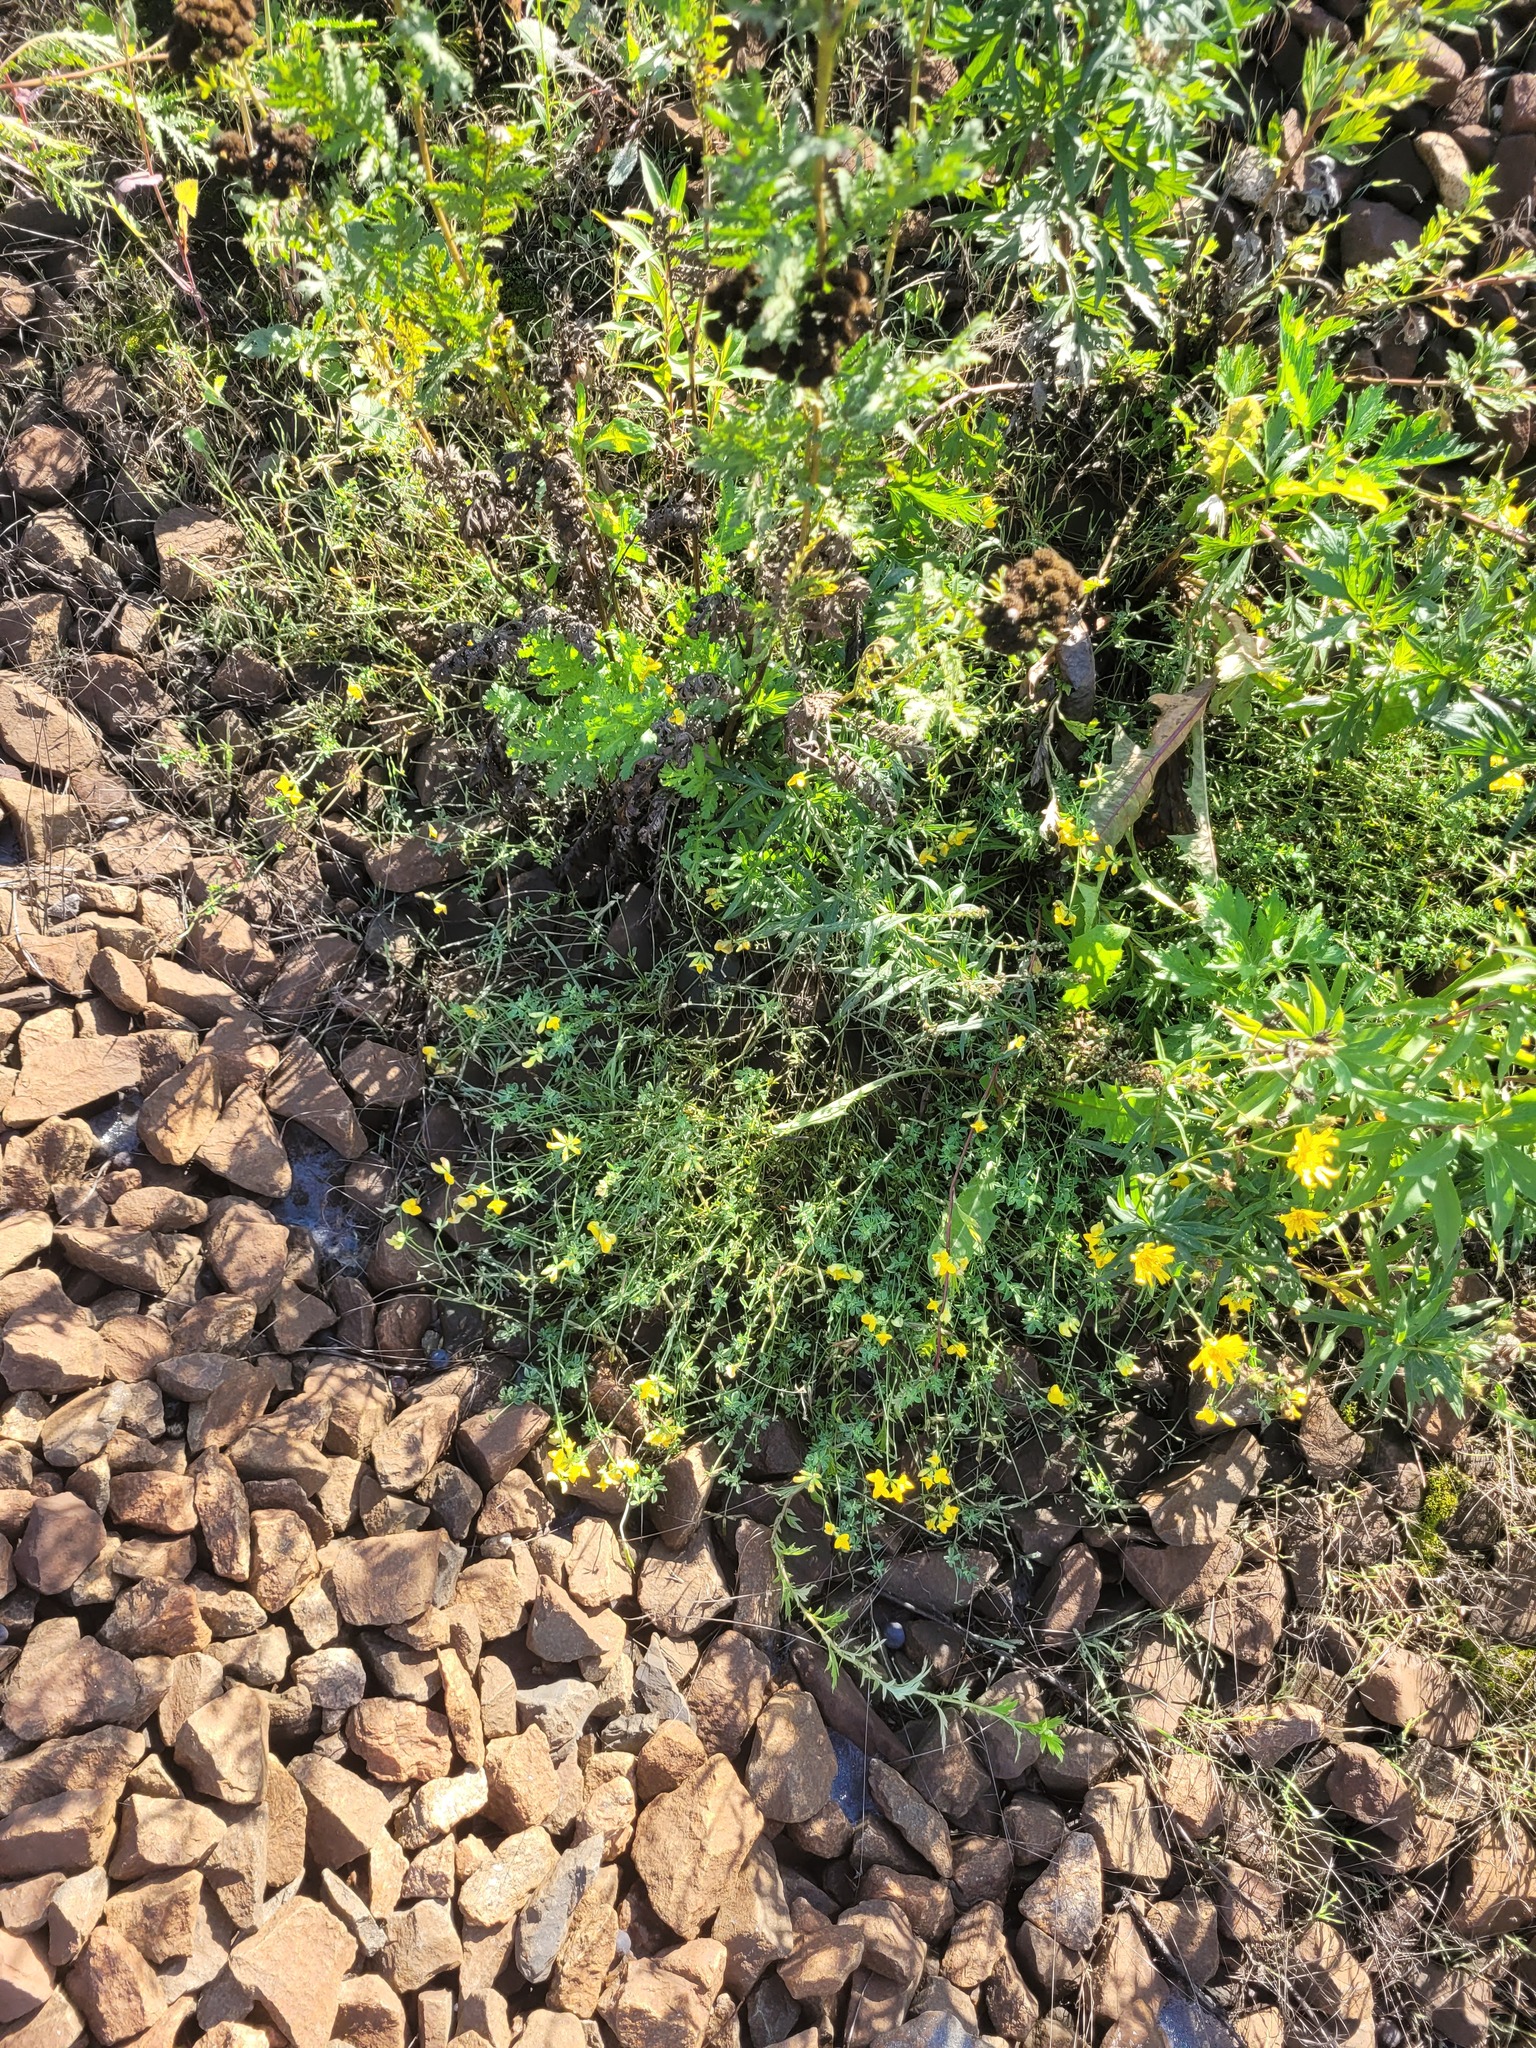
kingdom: Plantae
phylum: Tracheophyta
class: Magnoliopsida
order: Fabales
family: Fabaceae
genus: Lotus
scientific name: Lotus corniculatus
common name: Common bird's-foot-trefoil
